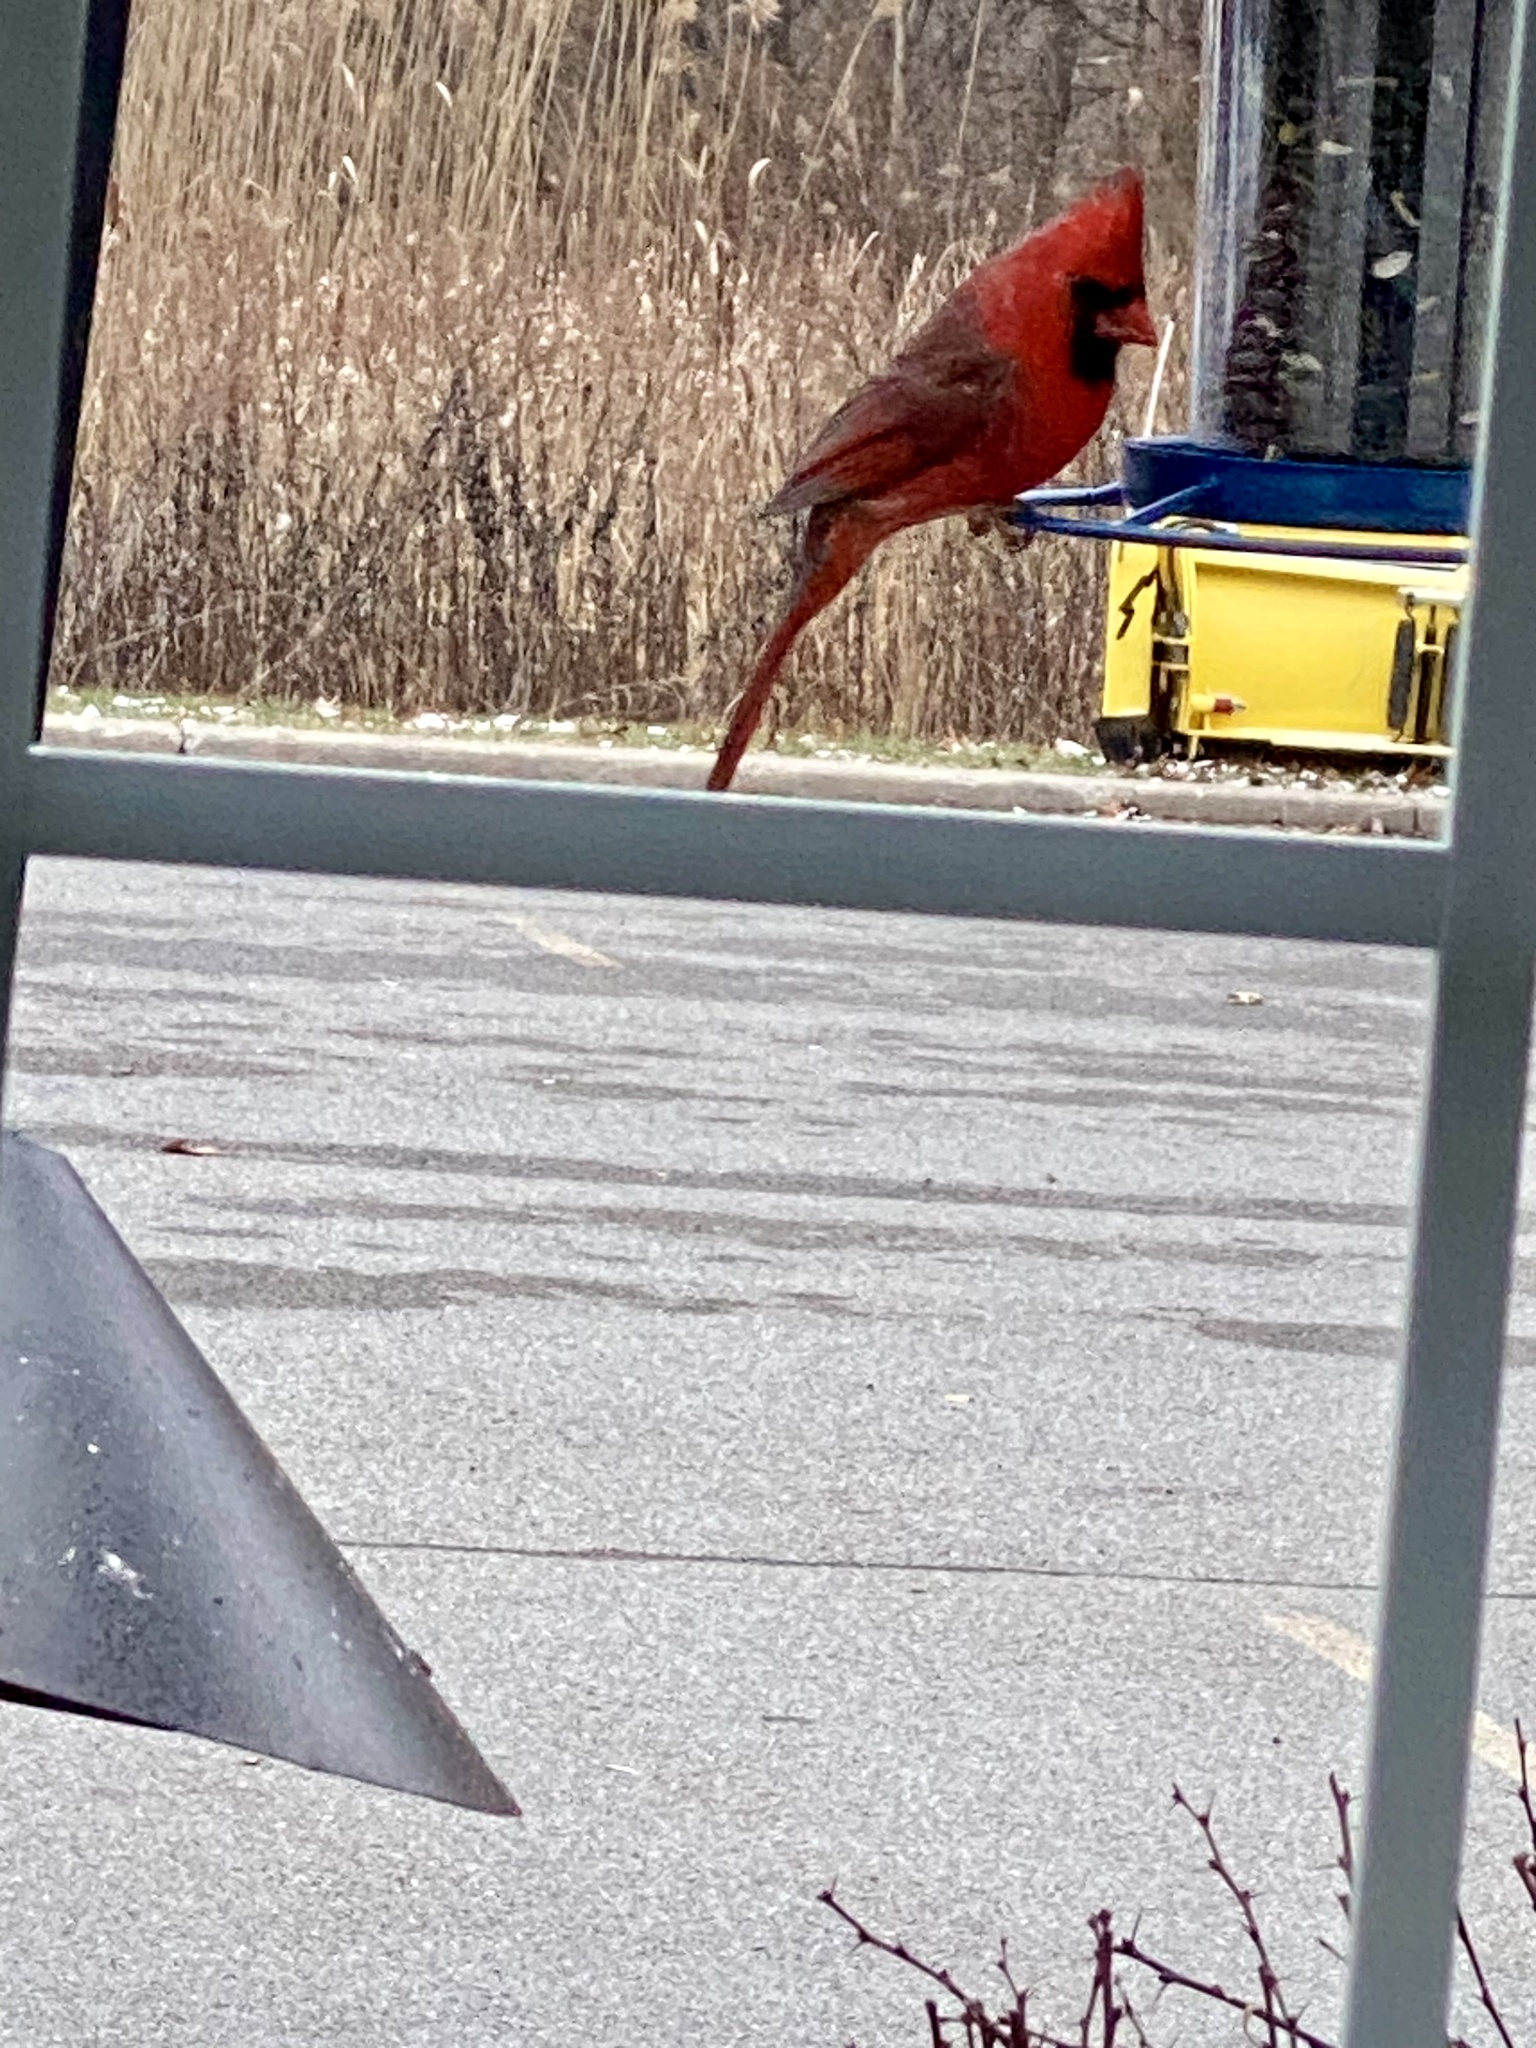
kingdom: Animalia
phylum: Chordata
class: Aves
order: Passeriformes
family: Cardinalidae
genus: Cardinalis
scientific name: Cardinalis cardinalis
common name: Northern cardinal
